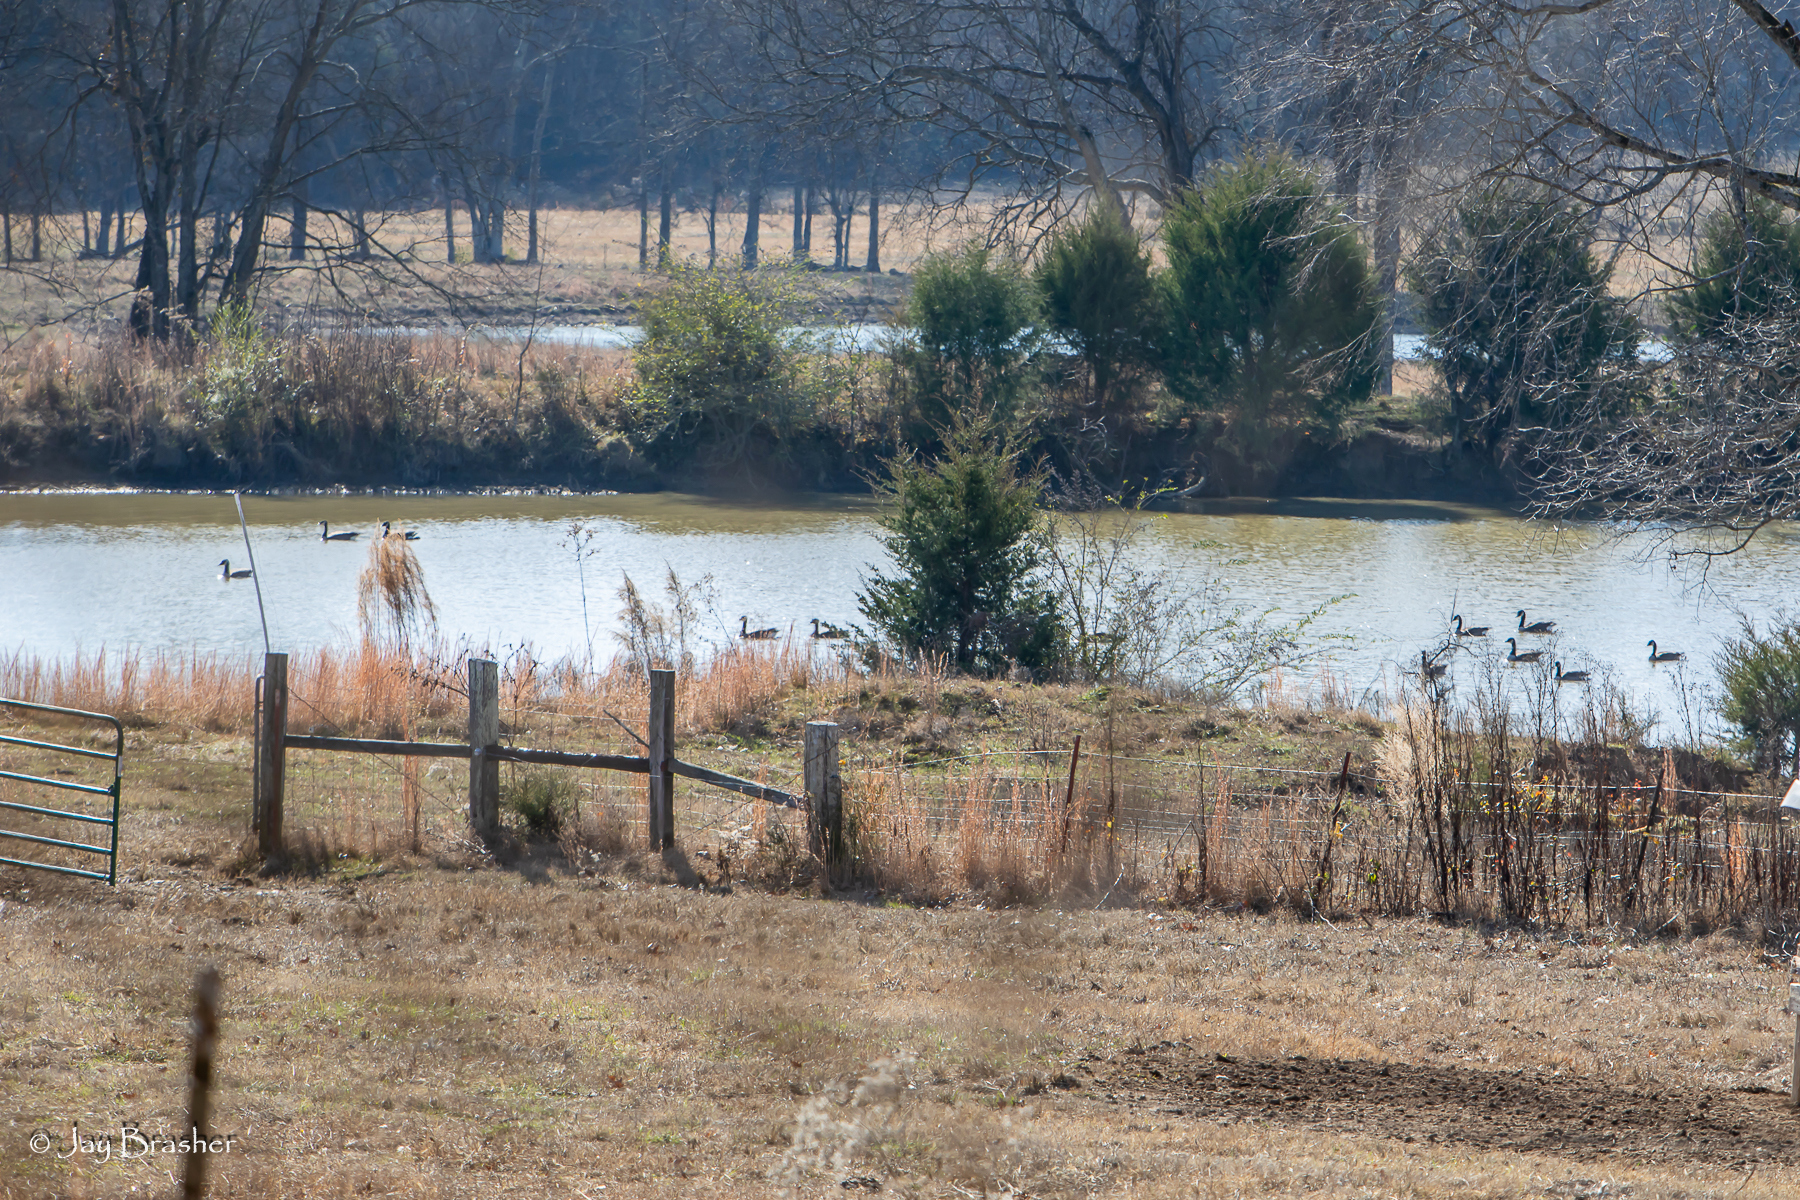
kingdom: Animalia
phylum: Chordata
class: Aves
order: Anseriformes
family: Anatidae
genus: Branta
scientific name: Branta canadensis
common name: Canada goose
